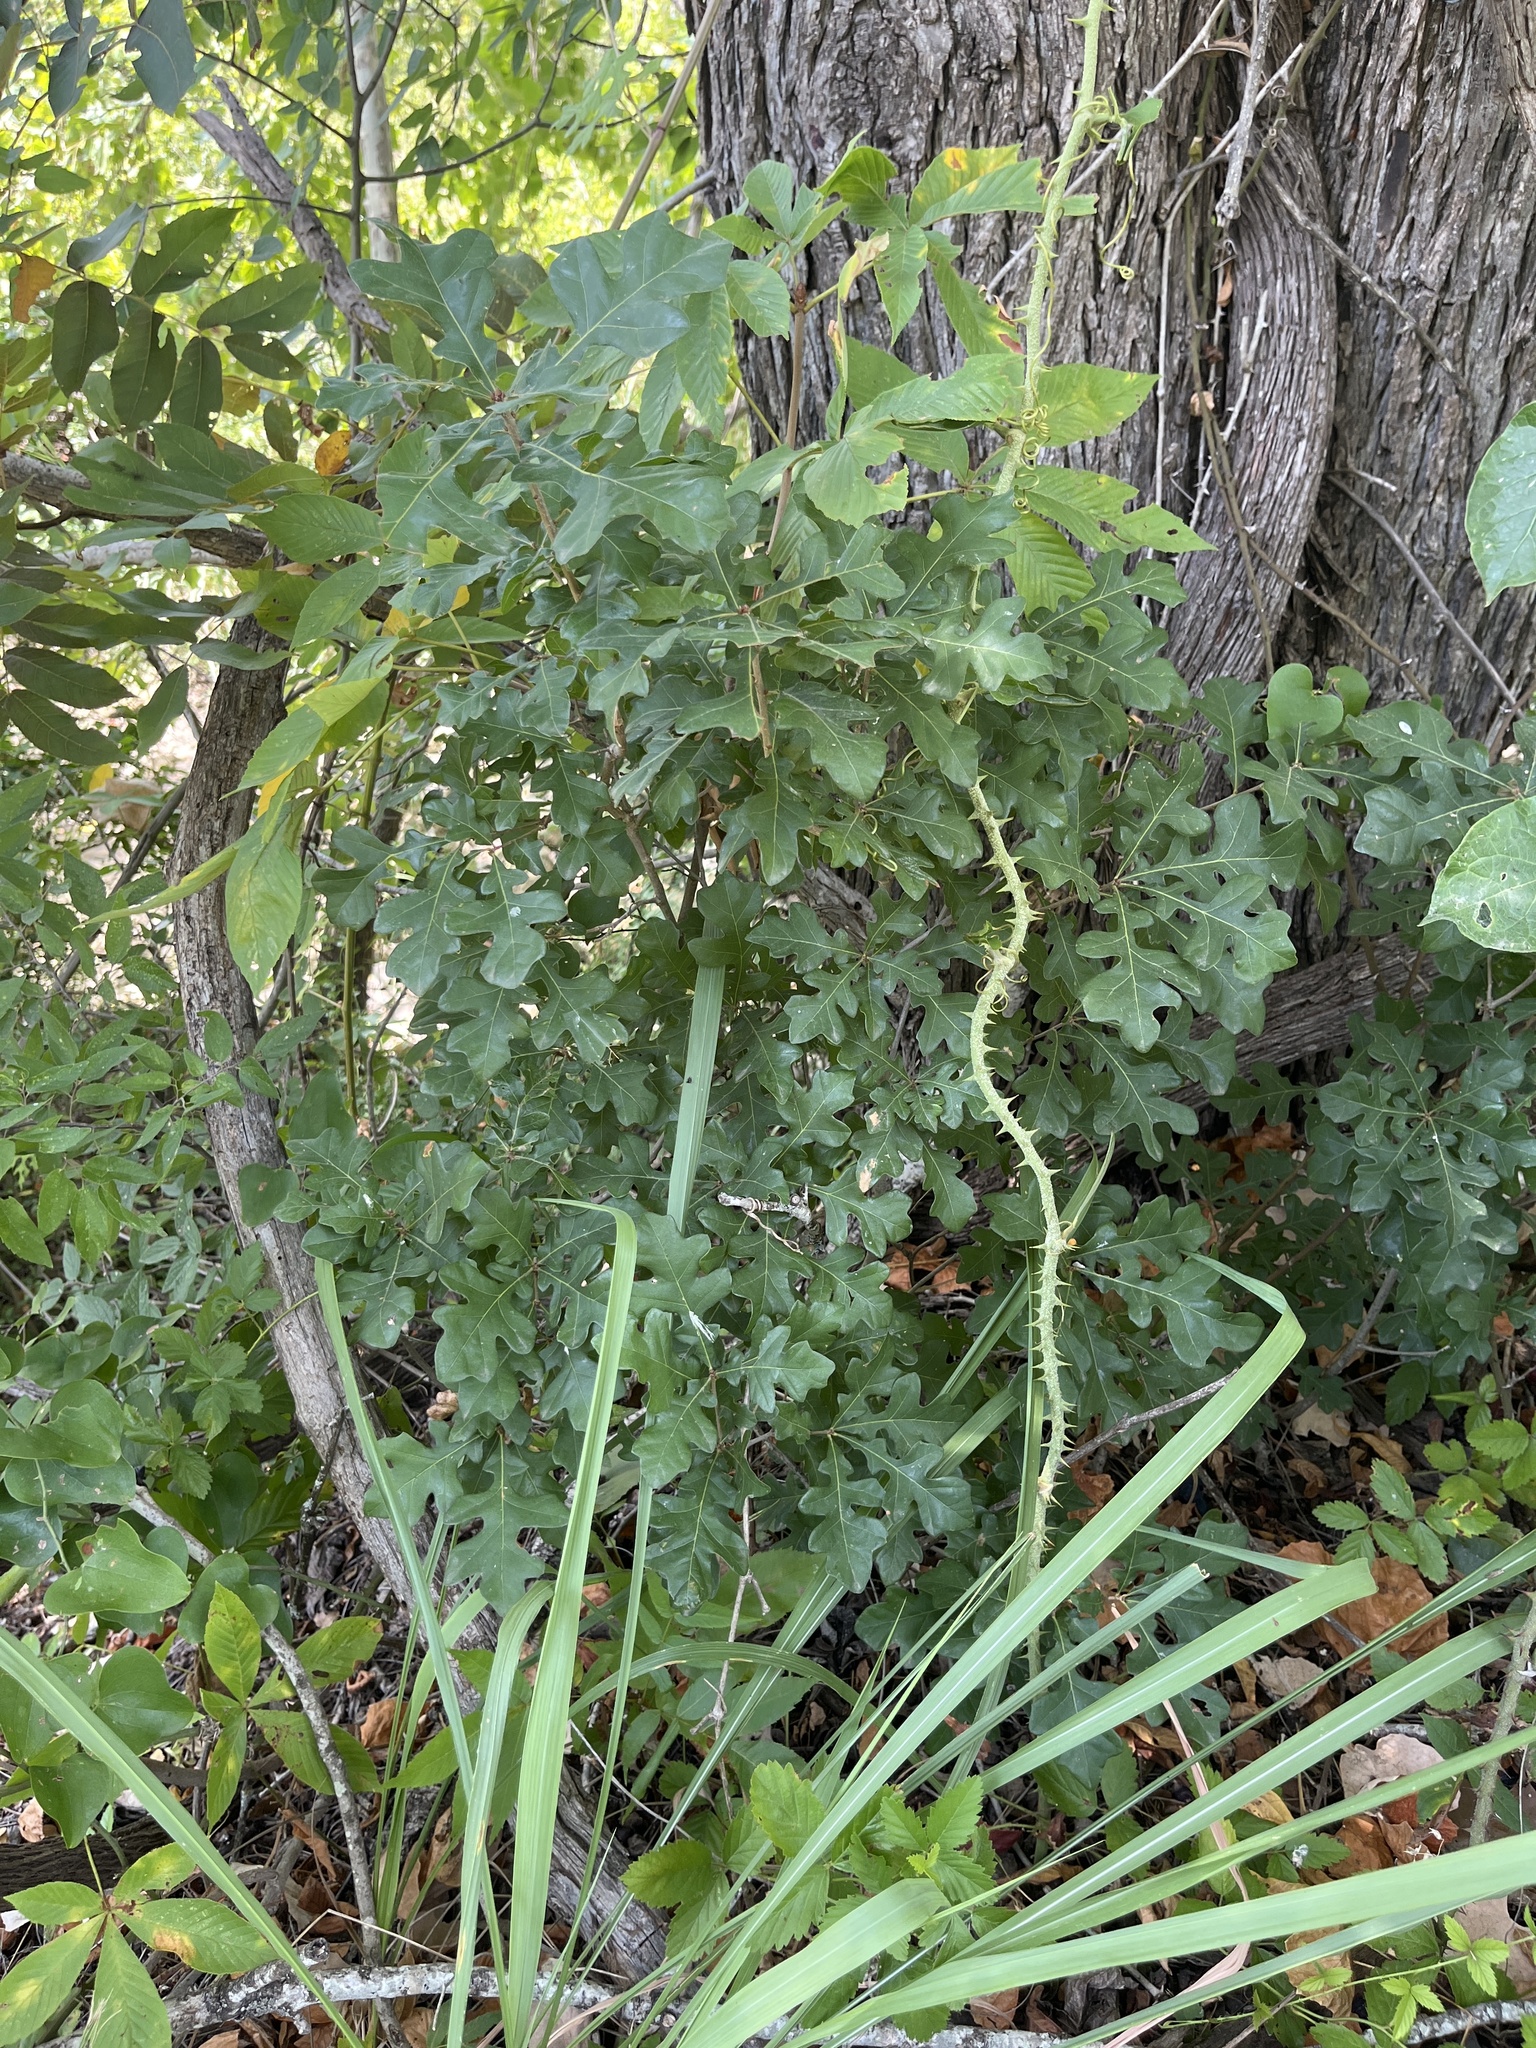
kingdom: Plantae
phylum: Tracheophyta
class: Magnoliopsida
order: Fagales
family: Fagaceae
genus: Quercus
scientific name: Quercus sinuata
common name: Durand oak
